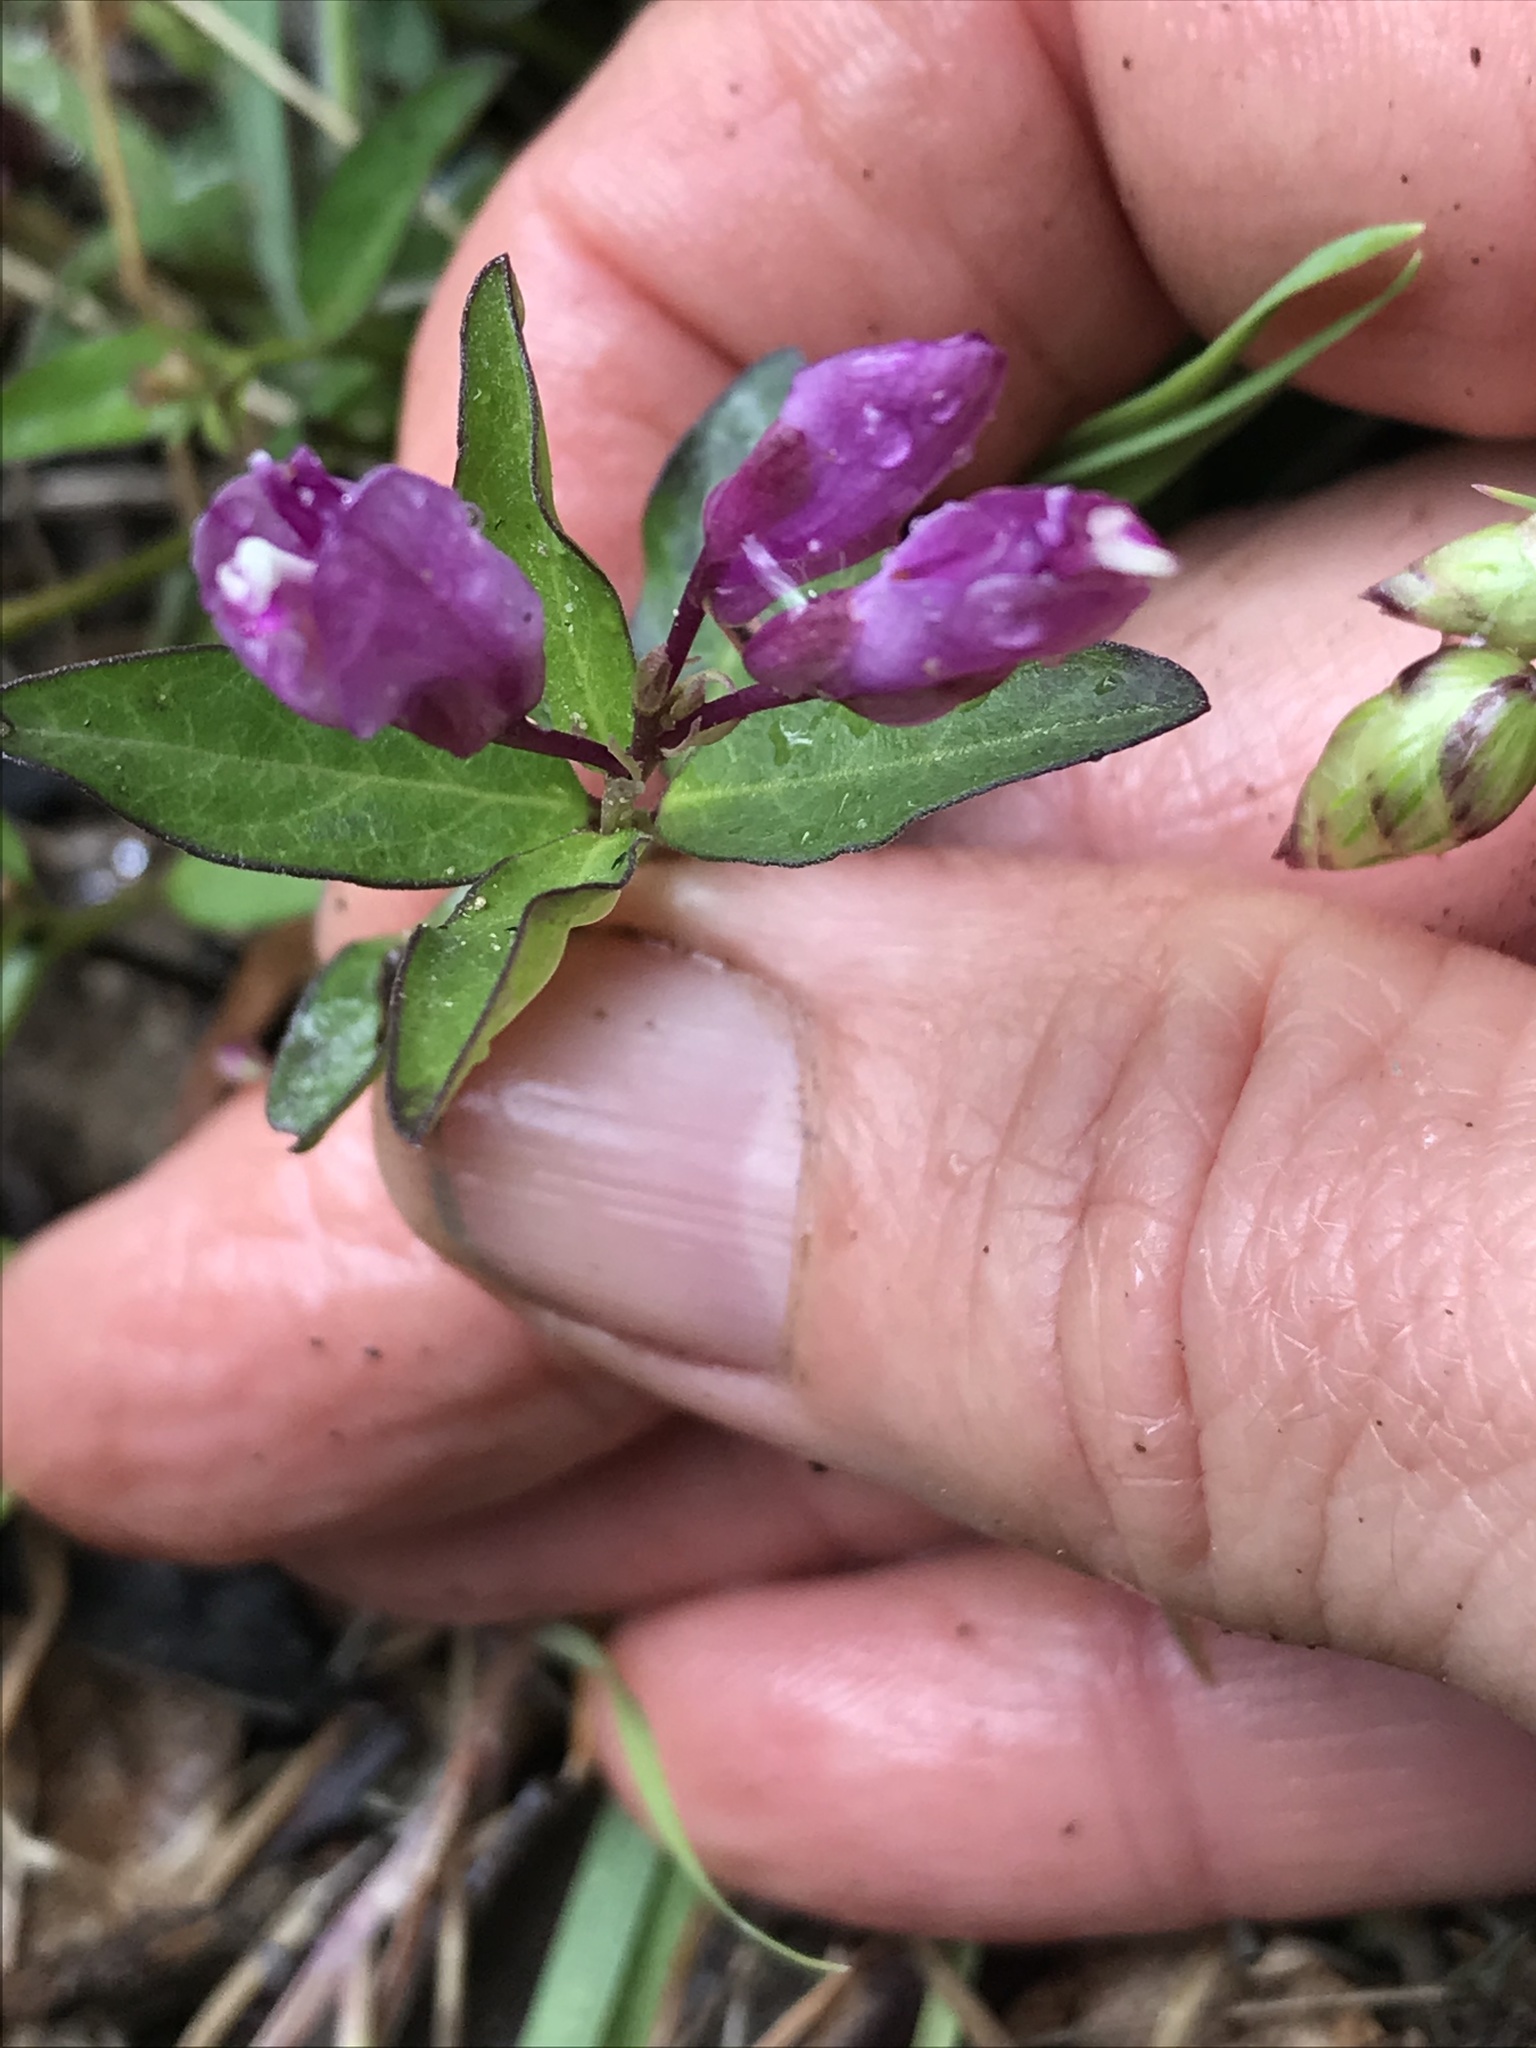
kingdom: Plantae
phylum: Tracheophyta
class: Magnoliopsida
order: Fabales
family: Polygalaceae
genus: Rhinotropis
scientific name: Rhinotropis californica
